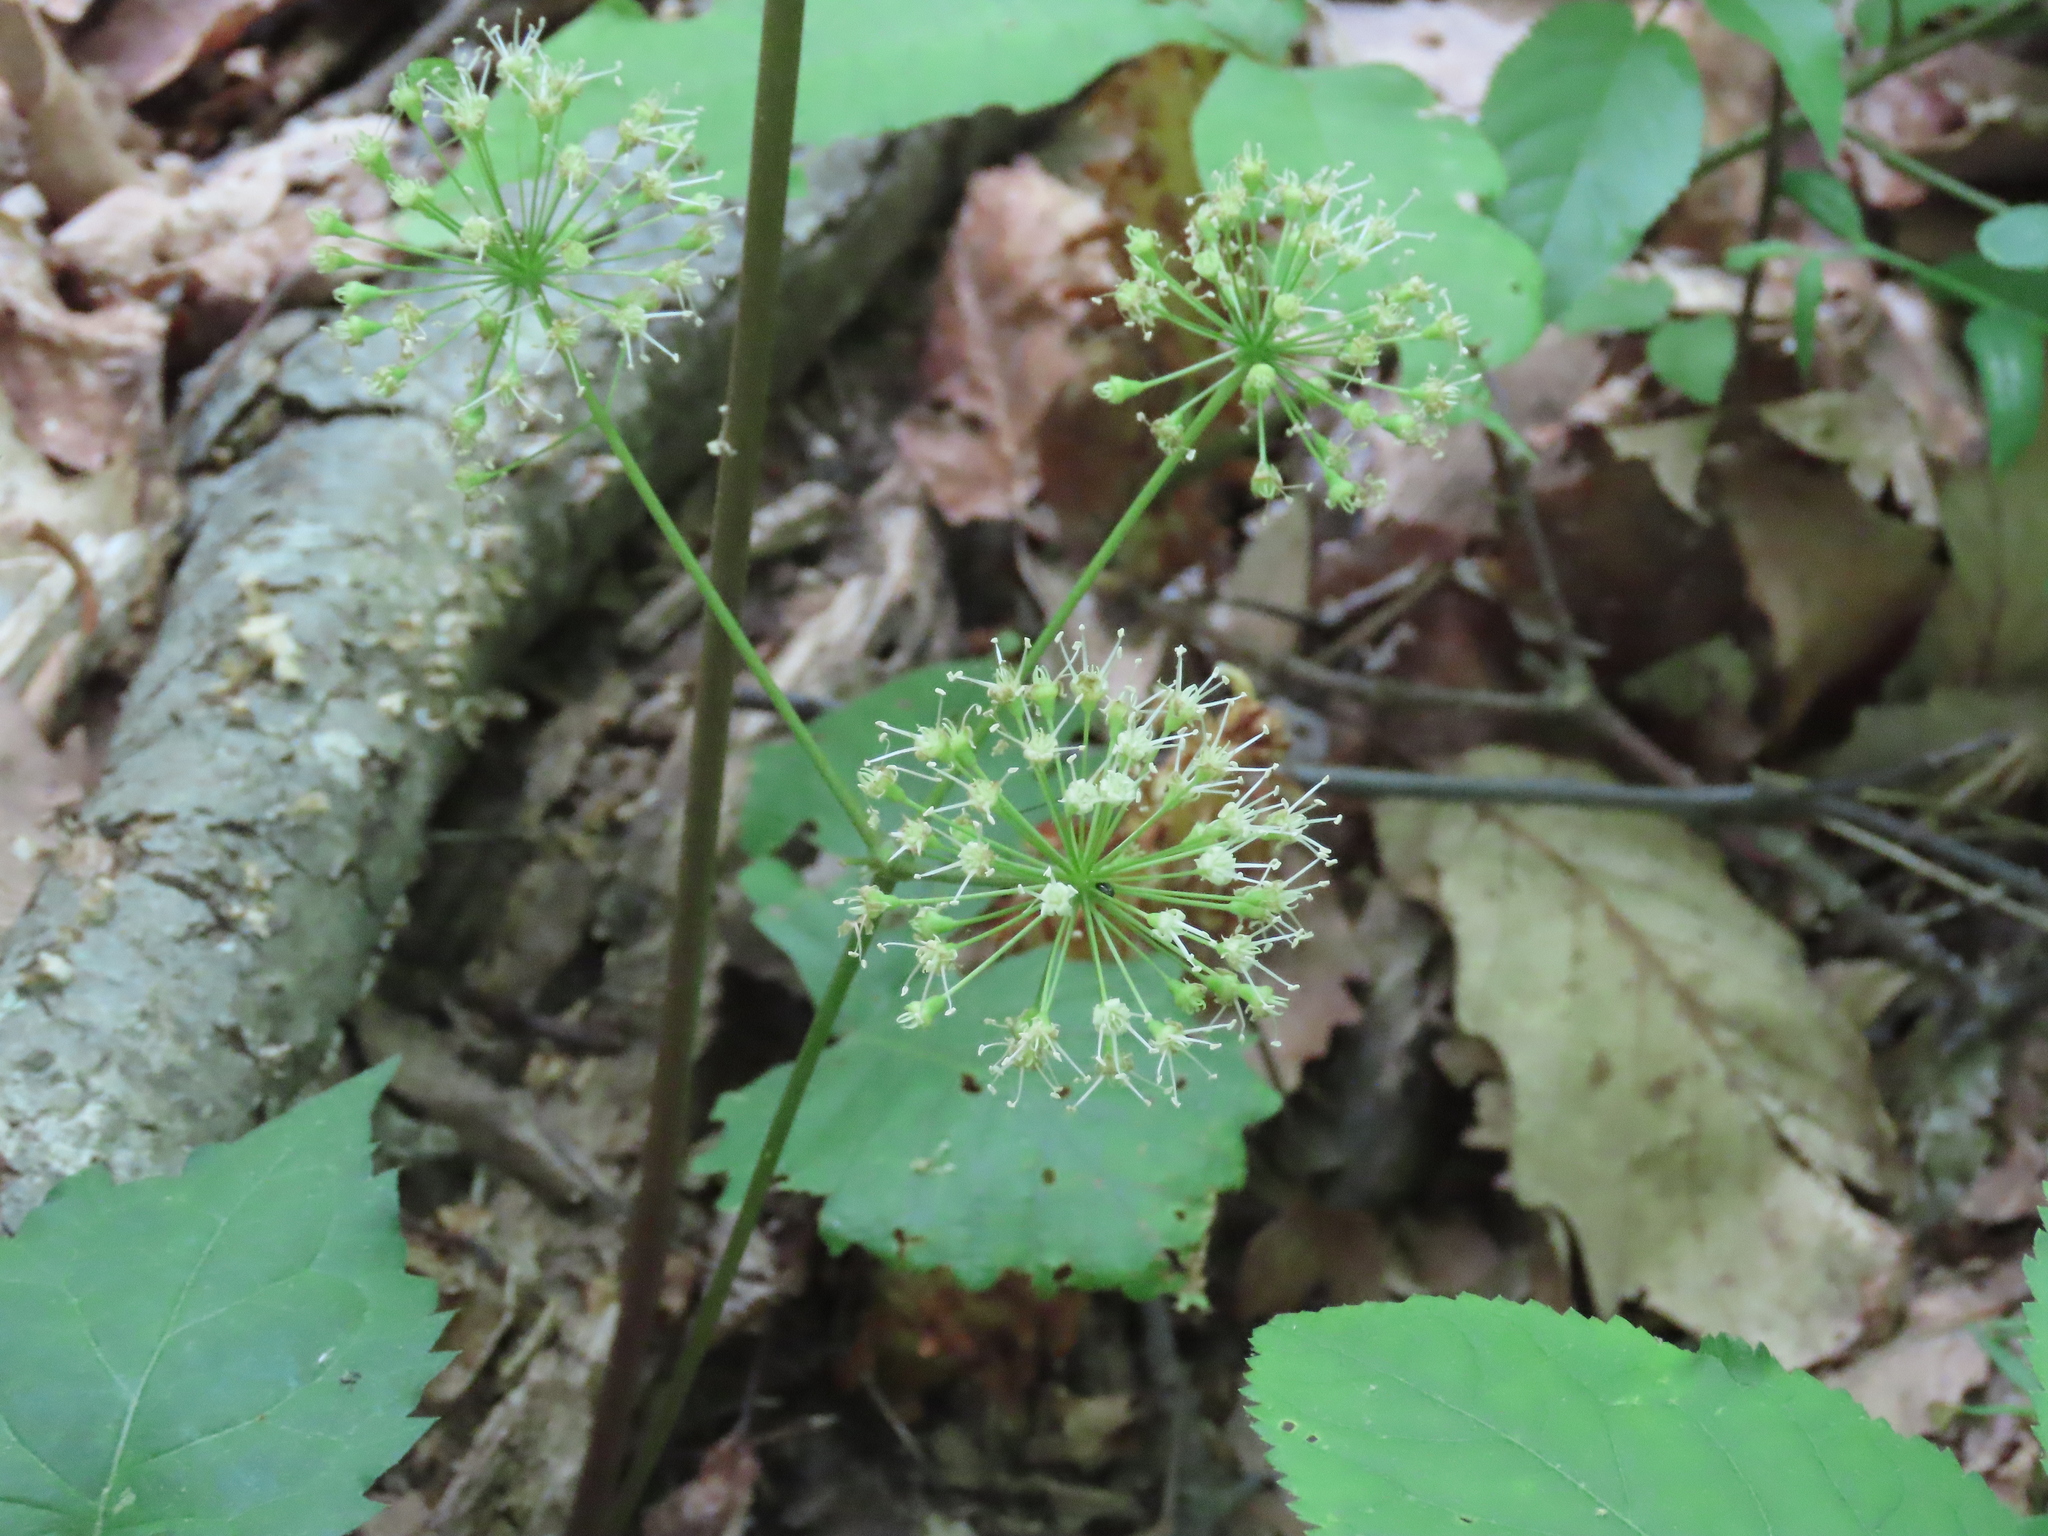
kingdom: Plantae
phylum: Tracheophyta
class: Magnoliopsida
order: Apiales
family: Araliaceae
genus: Aralia
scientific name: Aralia nudicaulis
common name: Wild sarsaparilla
